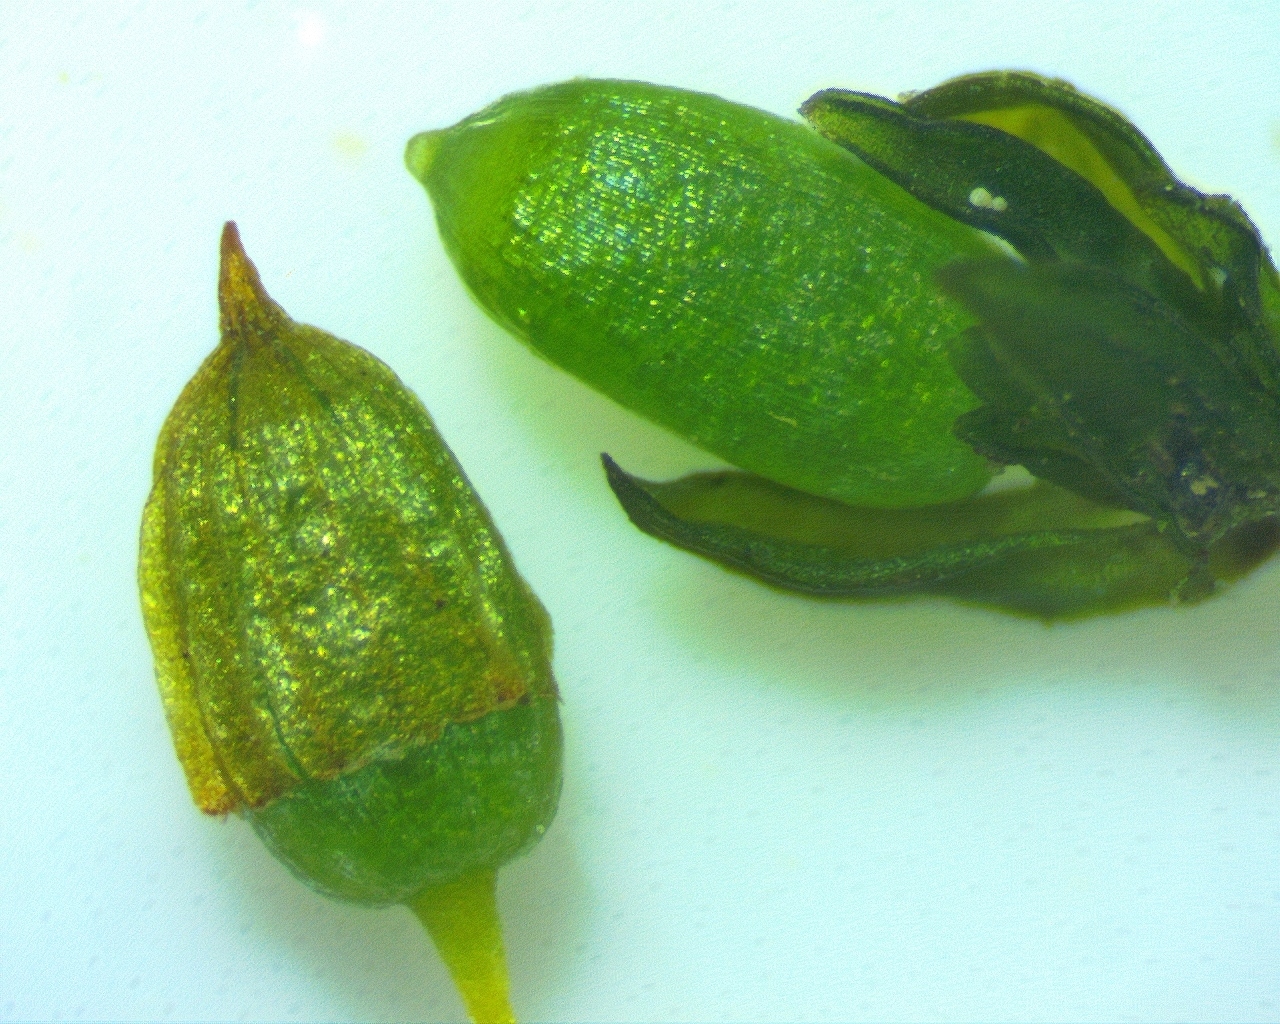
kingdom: Plantae
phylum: Bryophyta
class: Bryopsida
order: Orthotrichales
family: Orthotrichaceae
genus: Orthotrichum
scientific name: Orthotrichum stellatum
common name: Starlike bristle moss
